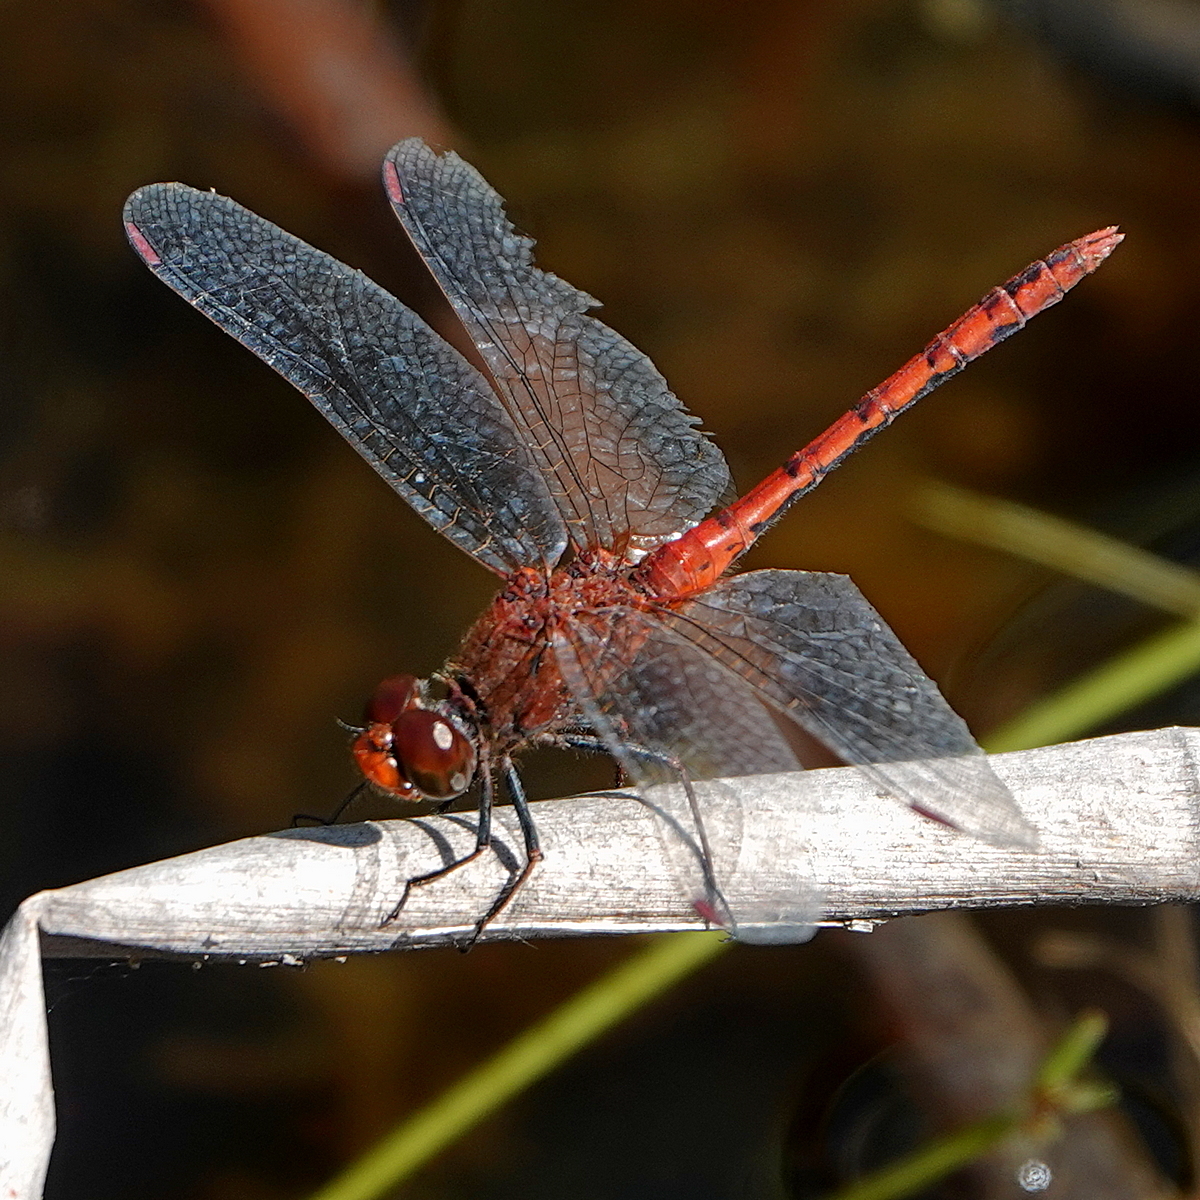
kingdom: Animalia
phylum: Arthropoda
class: Insecta
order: Odonata
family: Libellulidae
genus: Diplacodes
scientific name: Diplacodes bipunctata
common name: Red percher dragonfly
